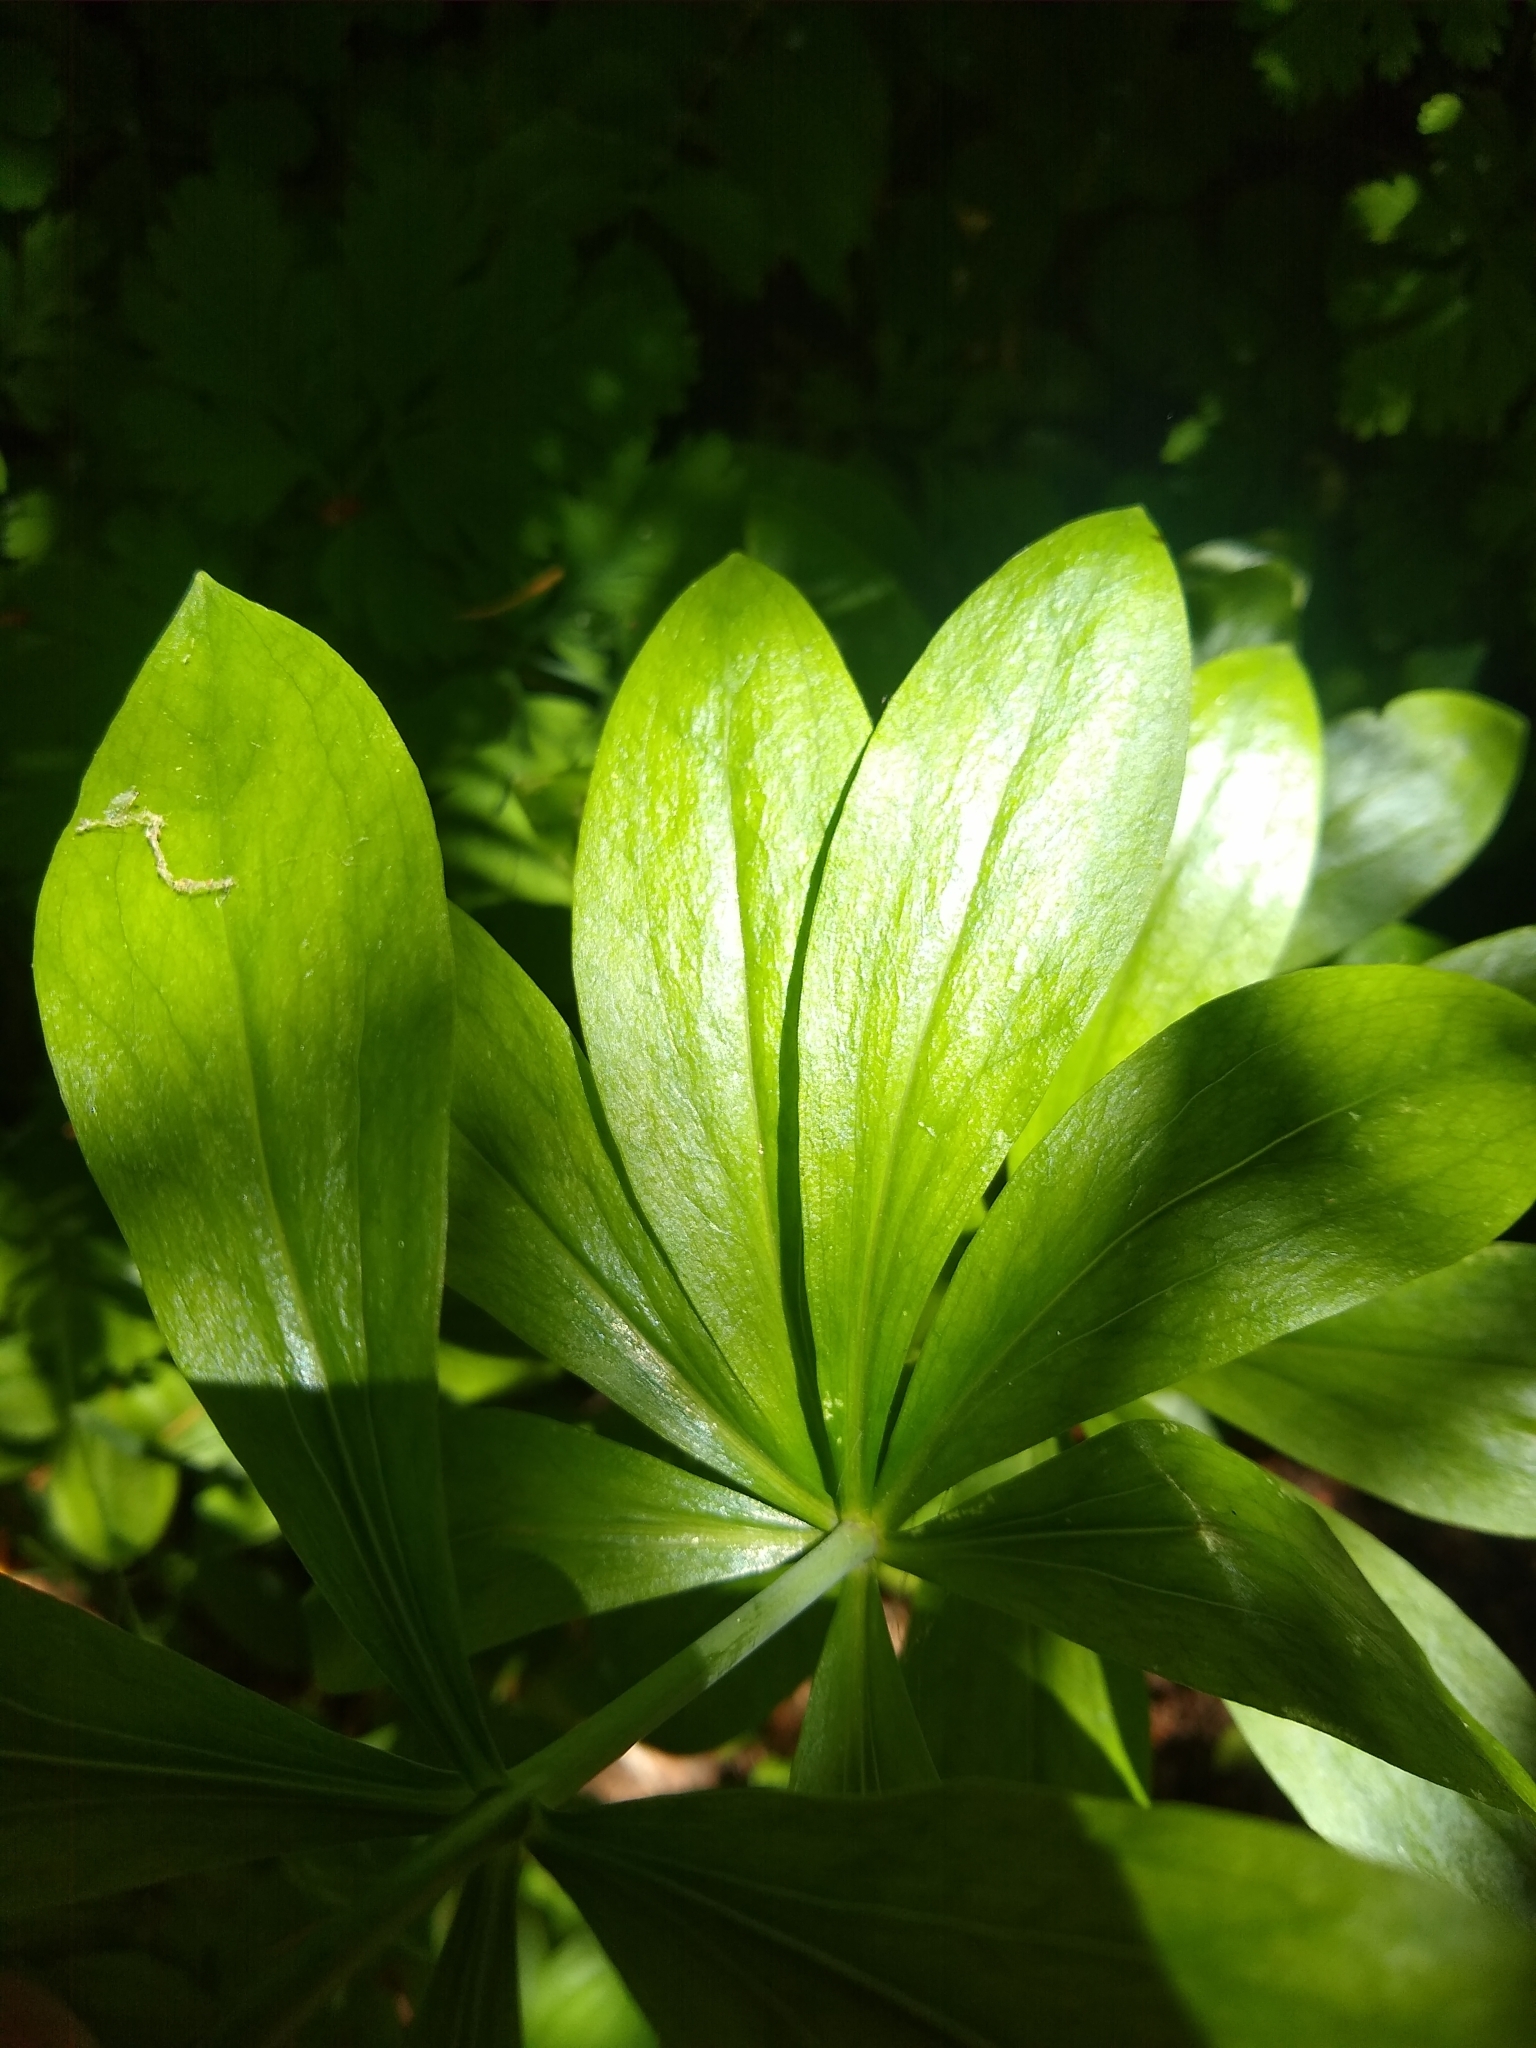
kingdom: Plantae
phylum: Tracheophyta
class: Liliopsida
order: Liliales
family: Liliaceae
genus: Lilium
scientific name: Lilium washingtonianum
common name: Washington lily
